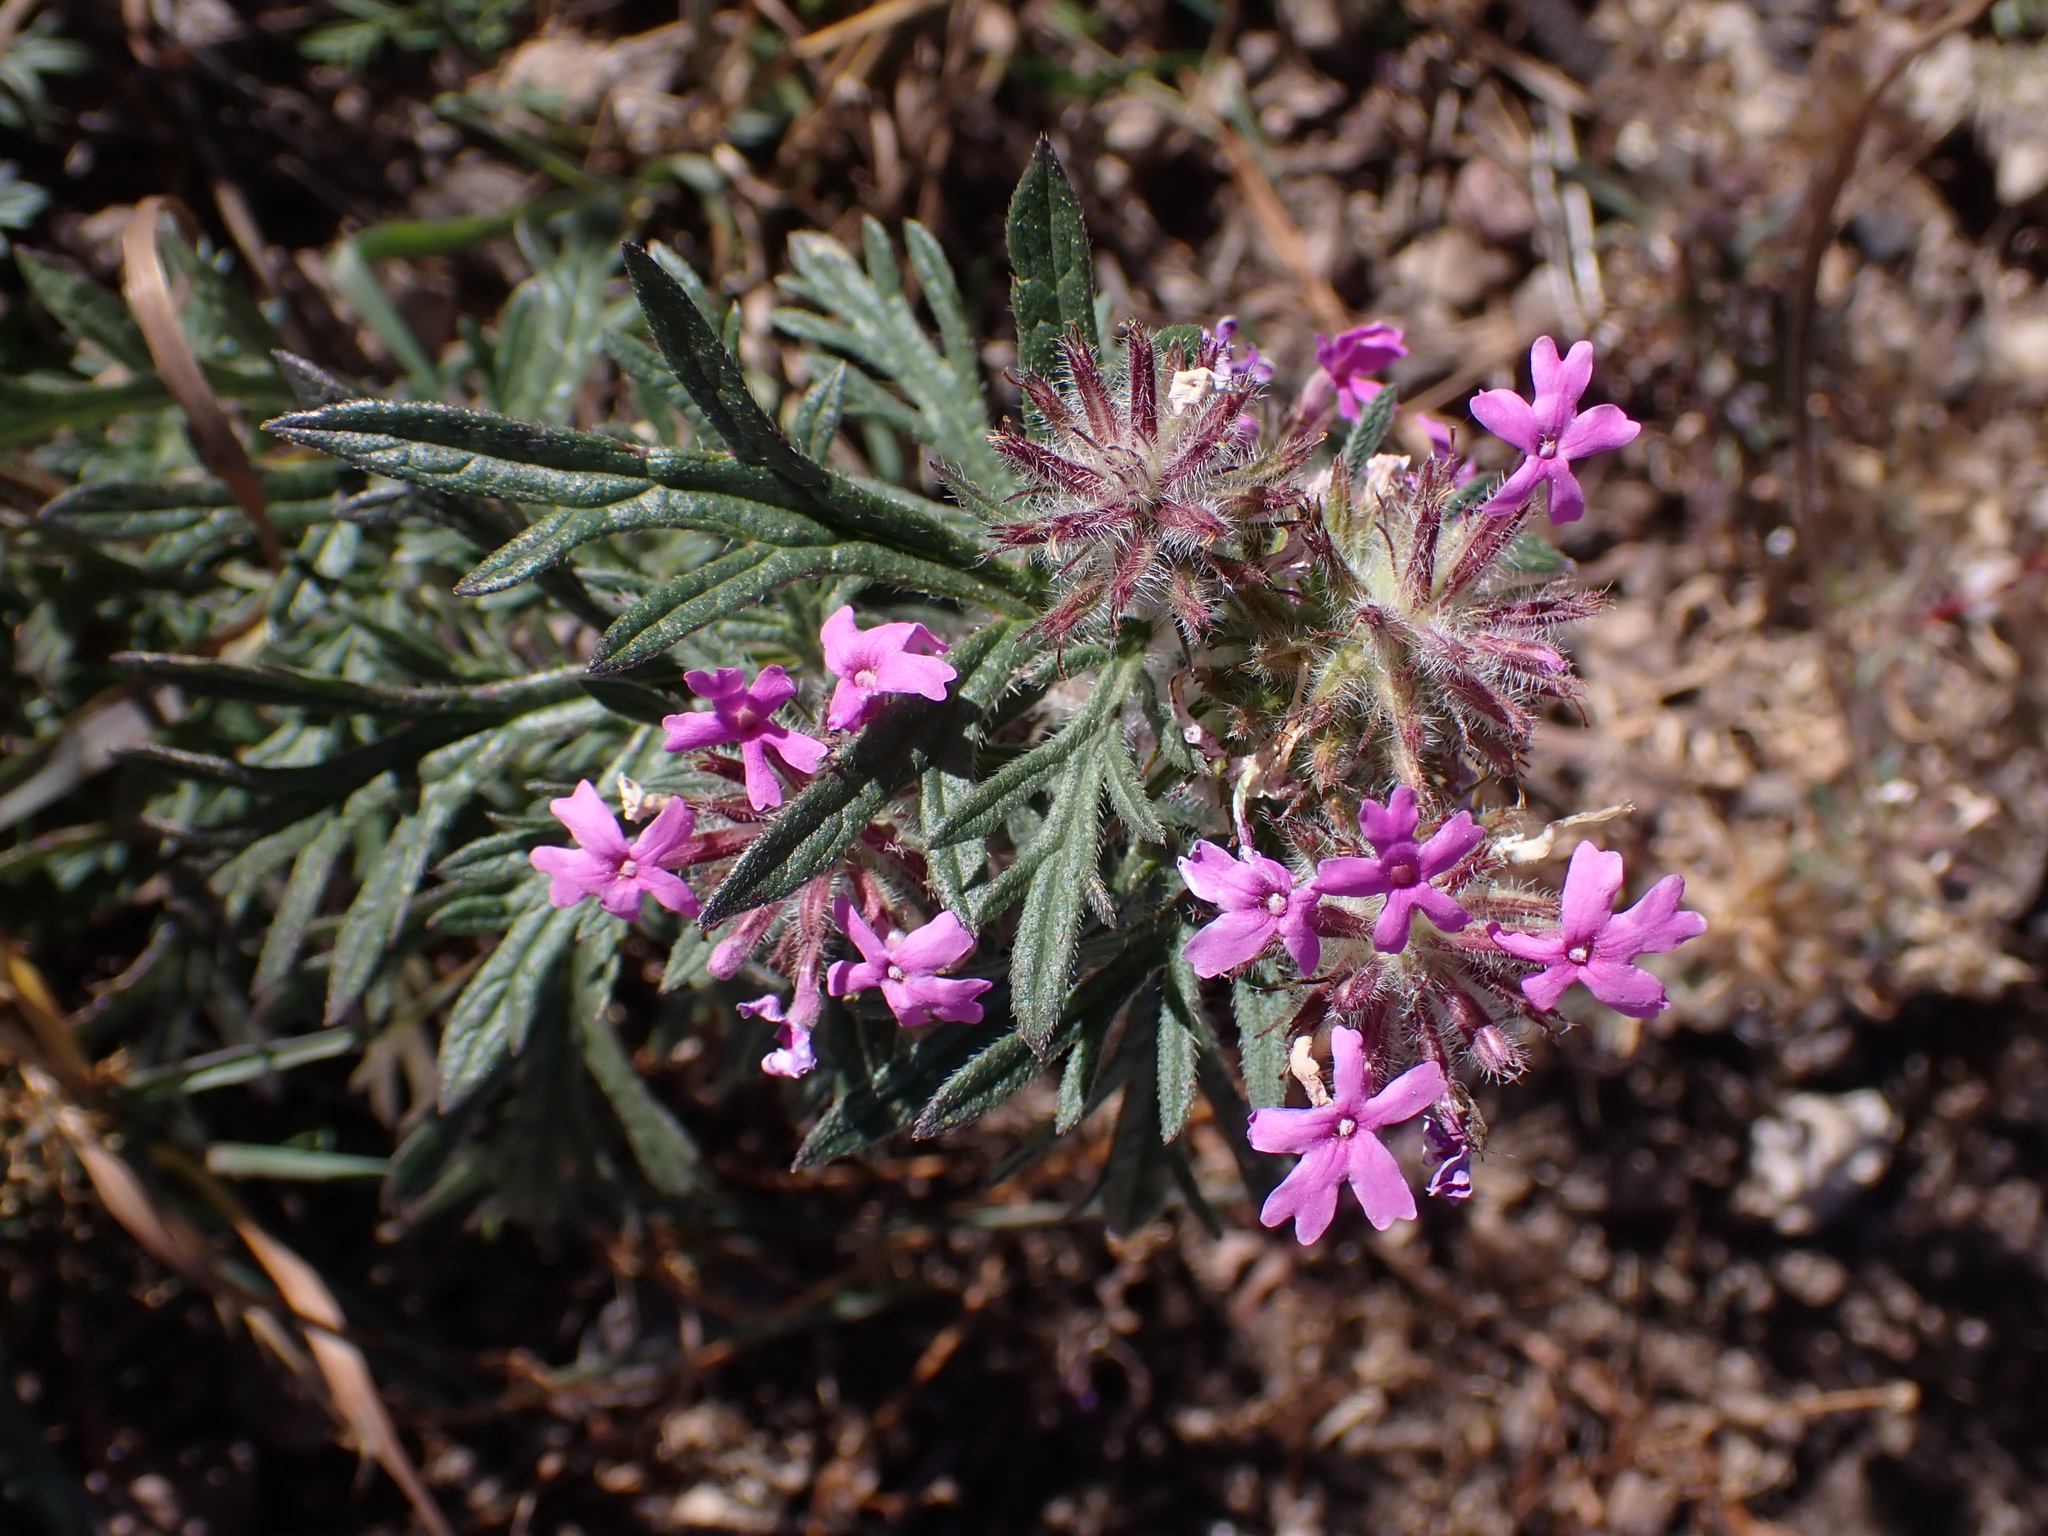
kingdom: Plantae
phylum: Tracheophyta
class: Magnoliopsida
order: Lamiales
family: Verbenaceae
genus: Verbena
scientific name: Verbena chiricahensis
